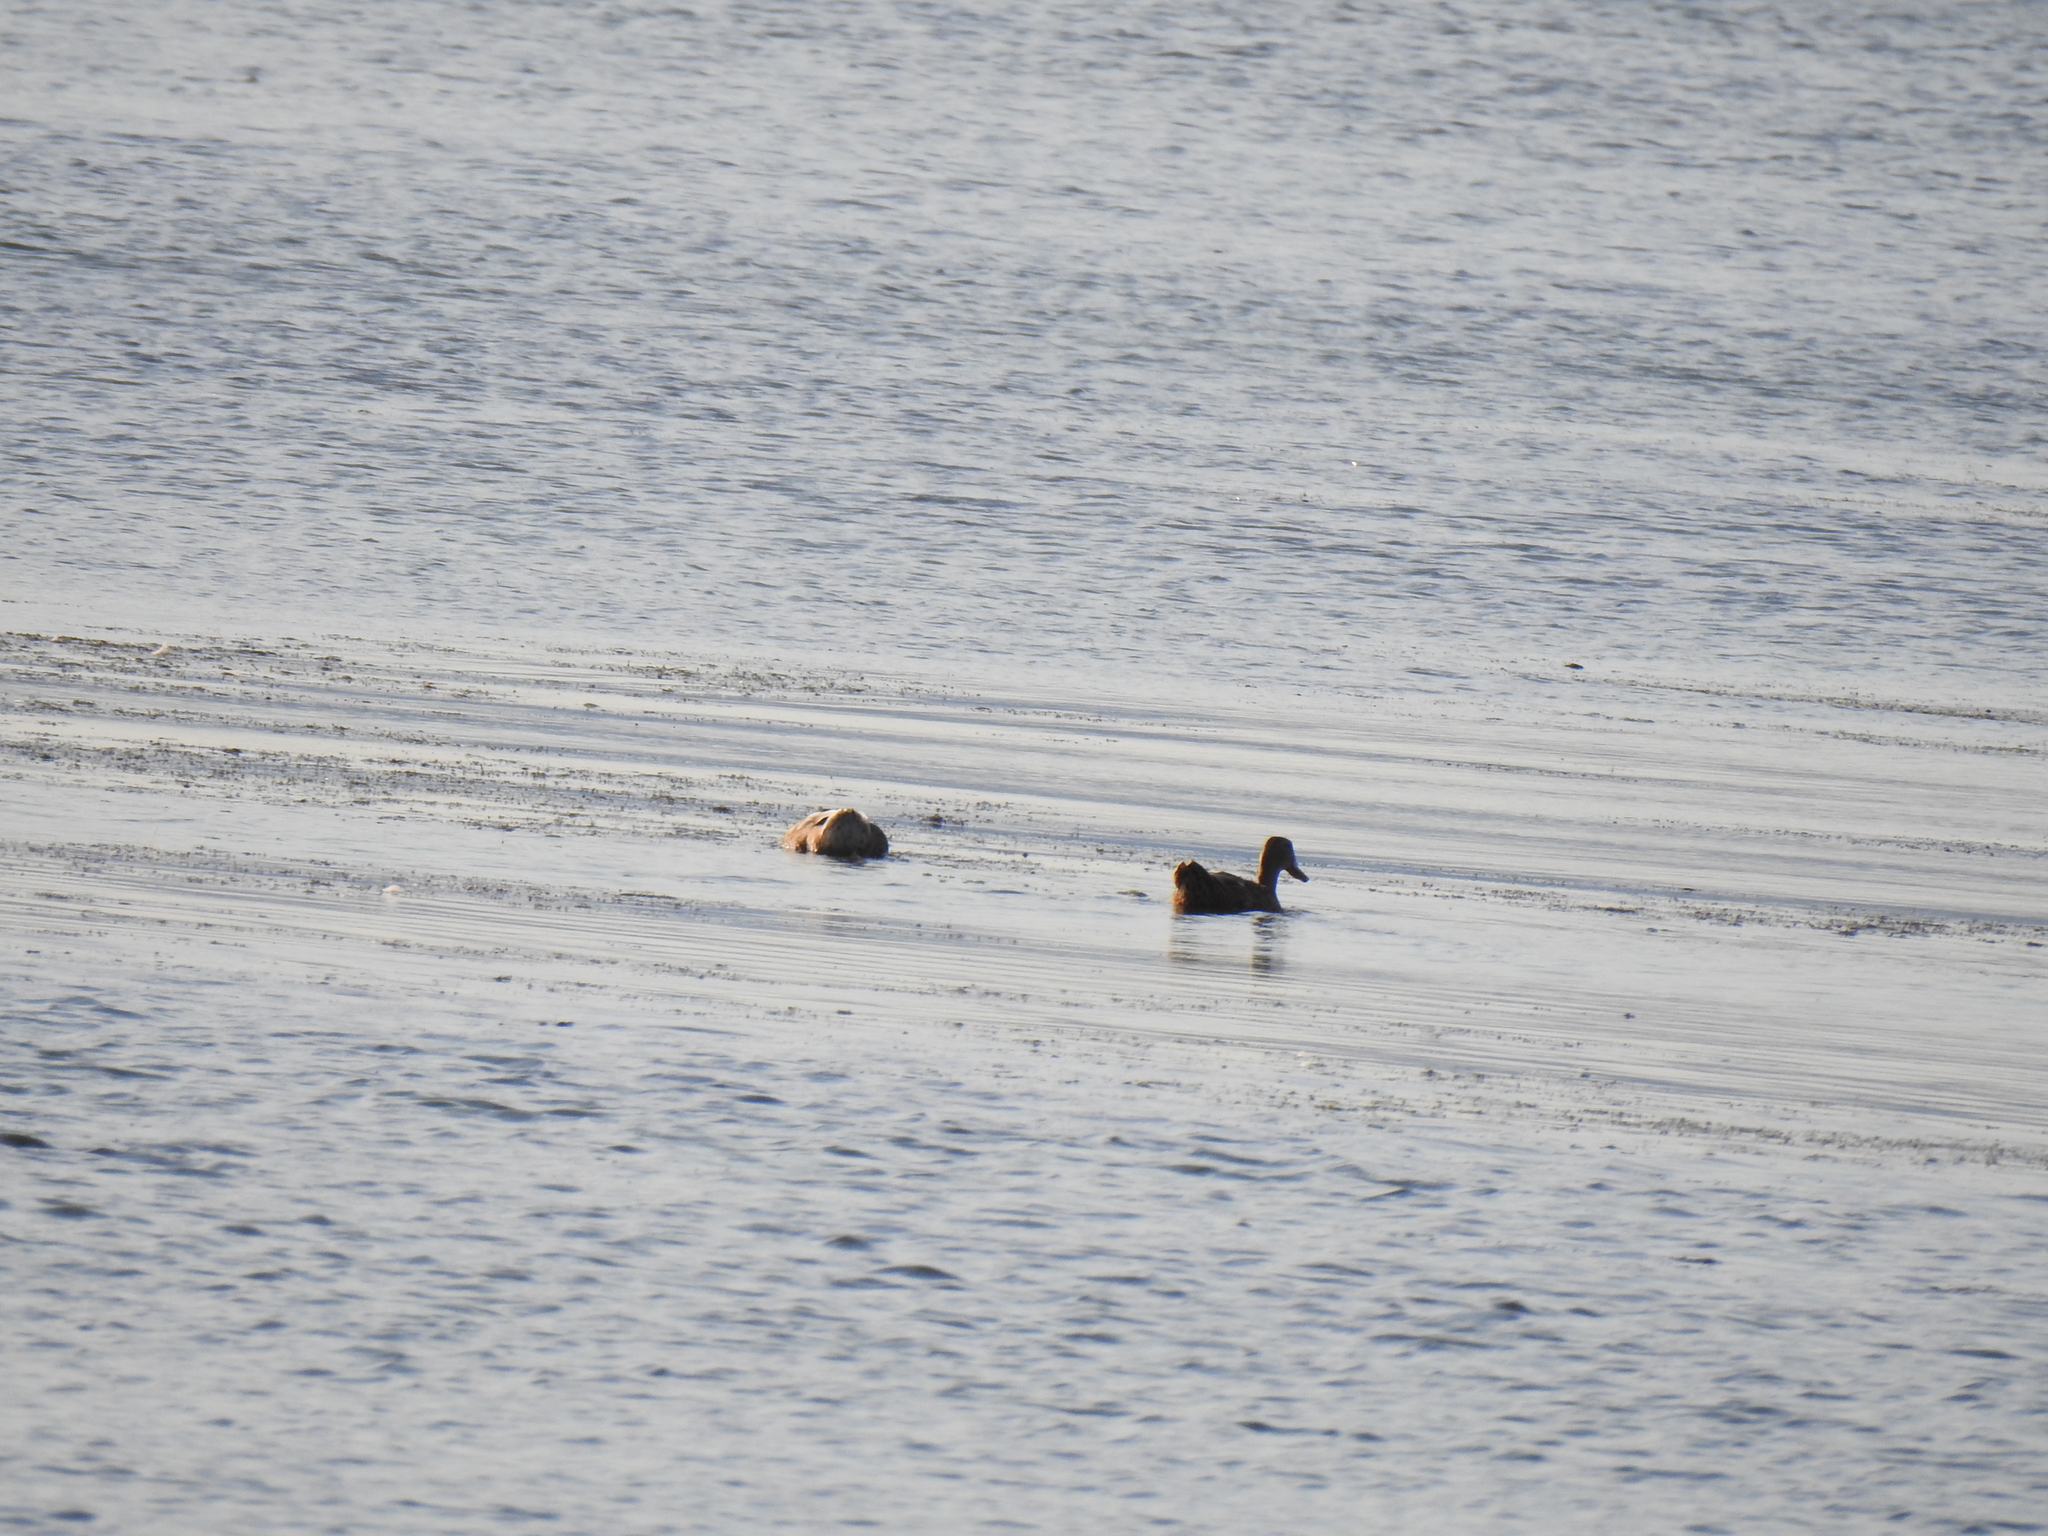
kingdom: Animalia
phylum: Chordata
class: Aves
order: Anseriformes
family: Anatidae
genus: Anas
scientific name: Anas platyrhynchos
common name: Mallard
